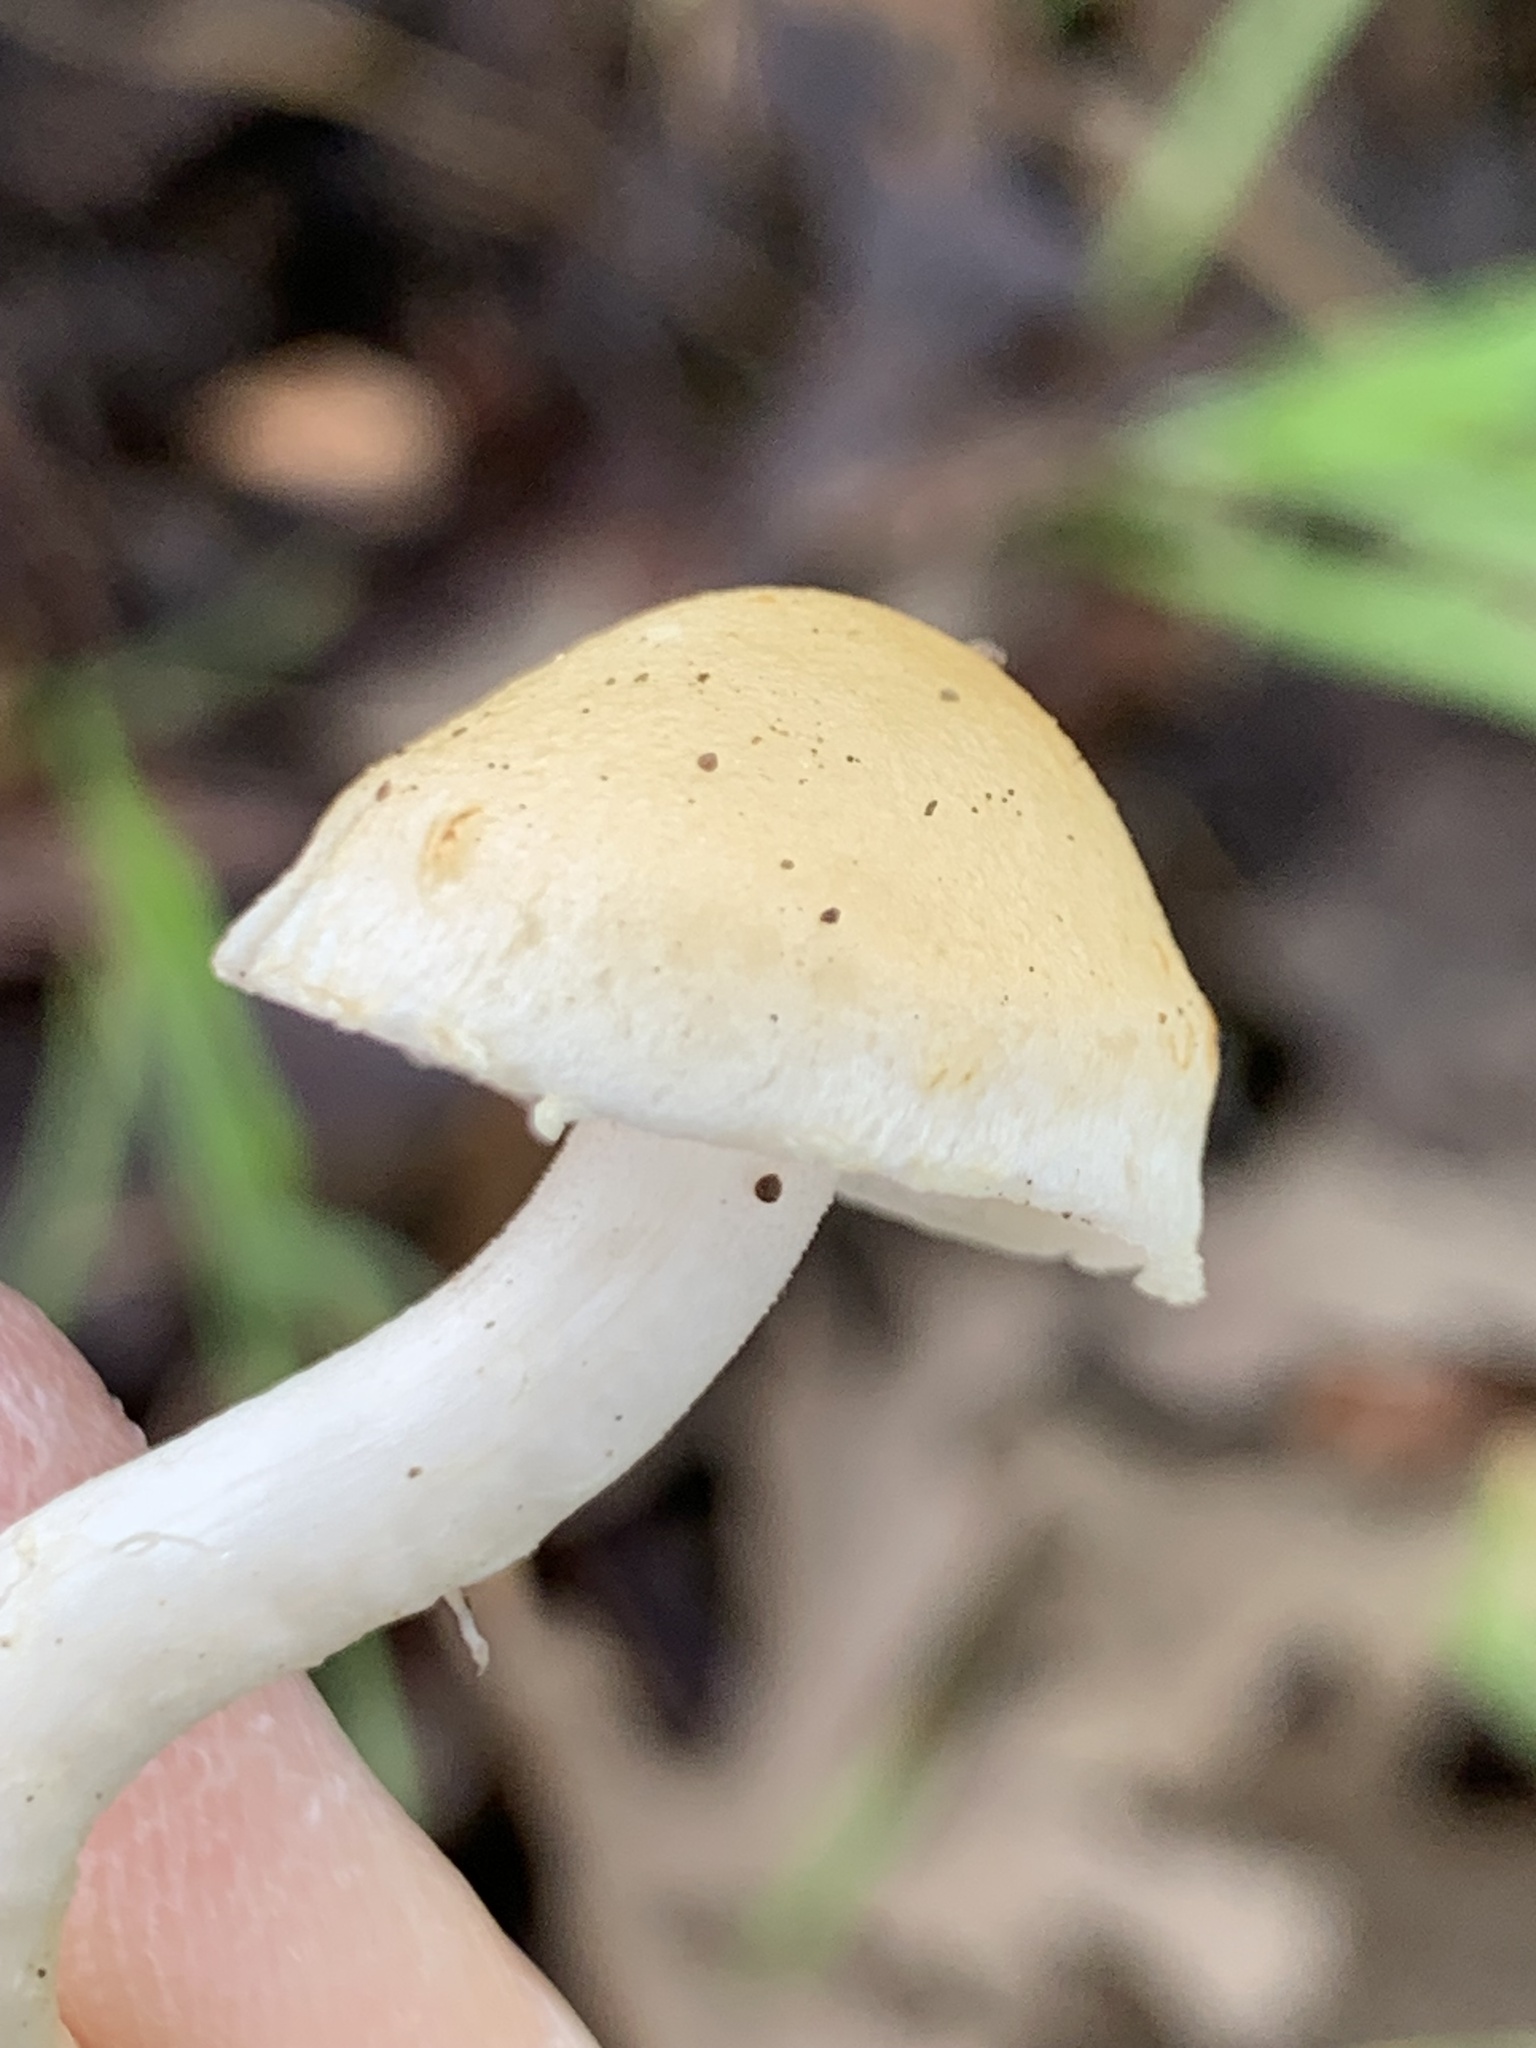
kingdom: Fungi
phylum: Basidiomycota
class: Agaricomycetes
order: Agaricales
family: Strophariaceae
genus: Leratiomyces
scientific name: Leratiomyces percevalii
